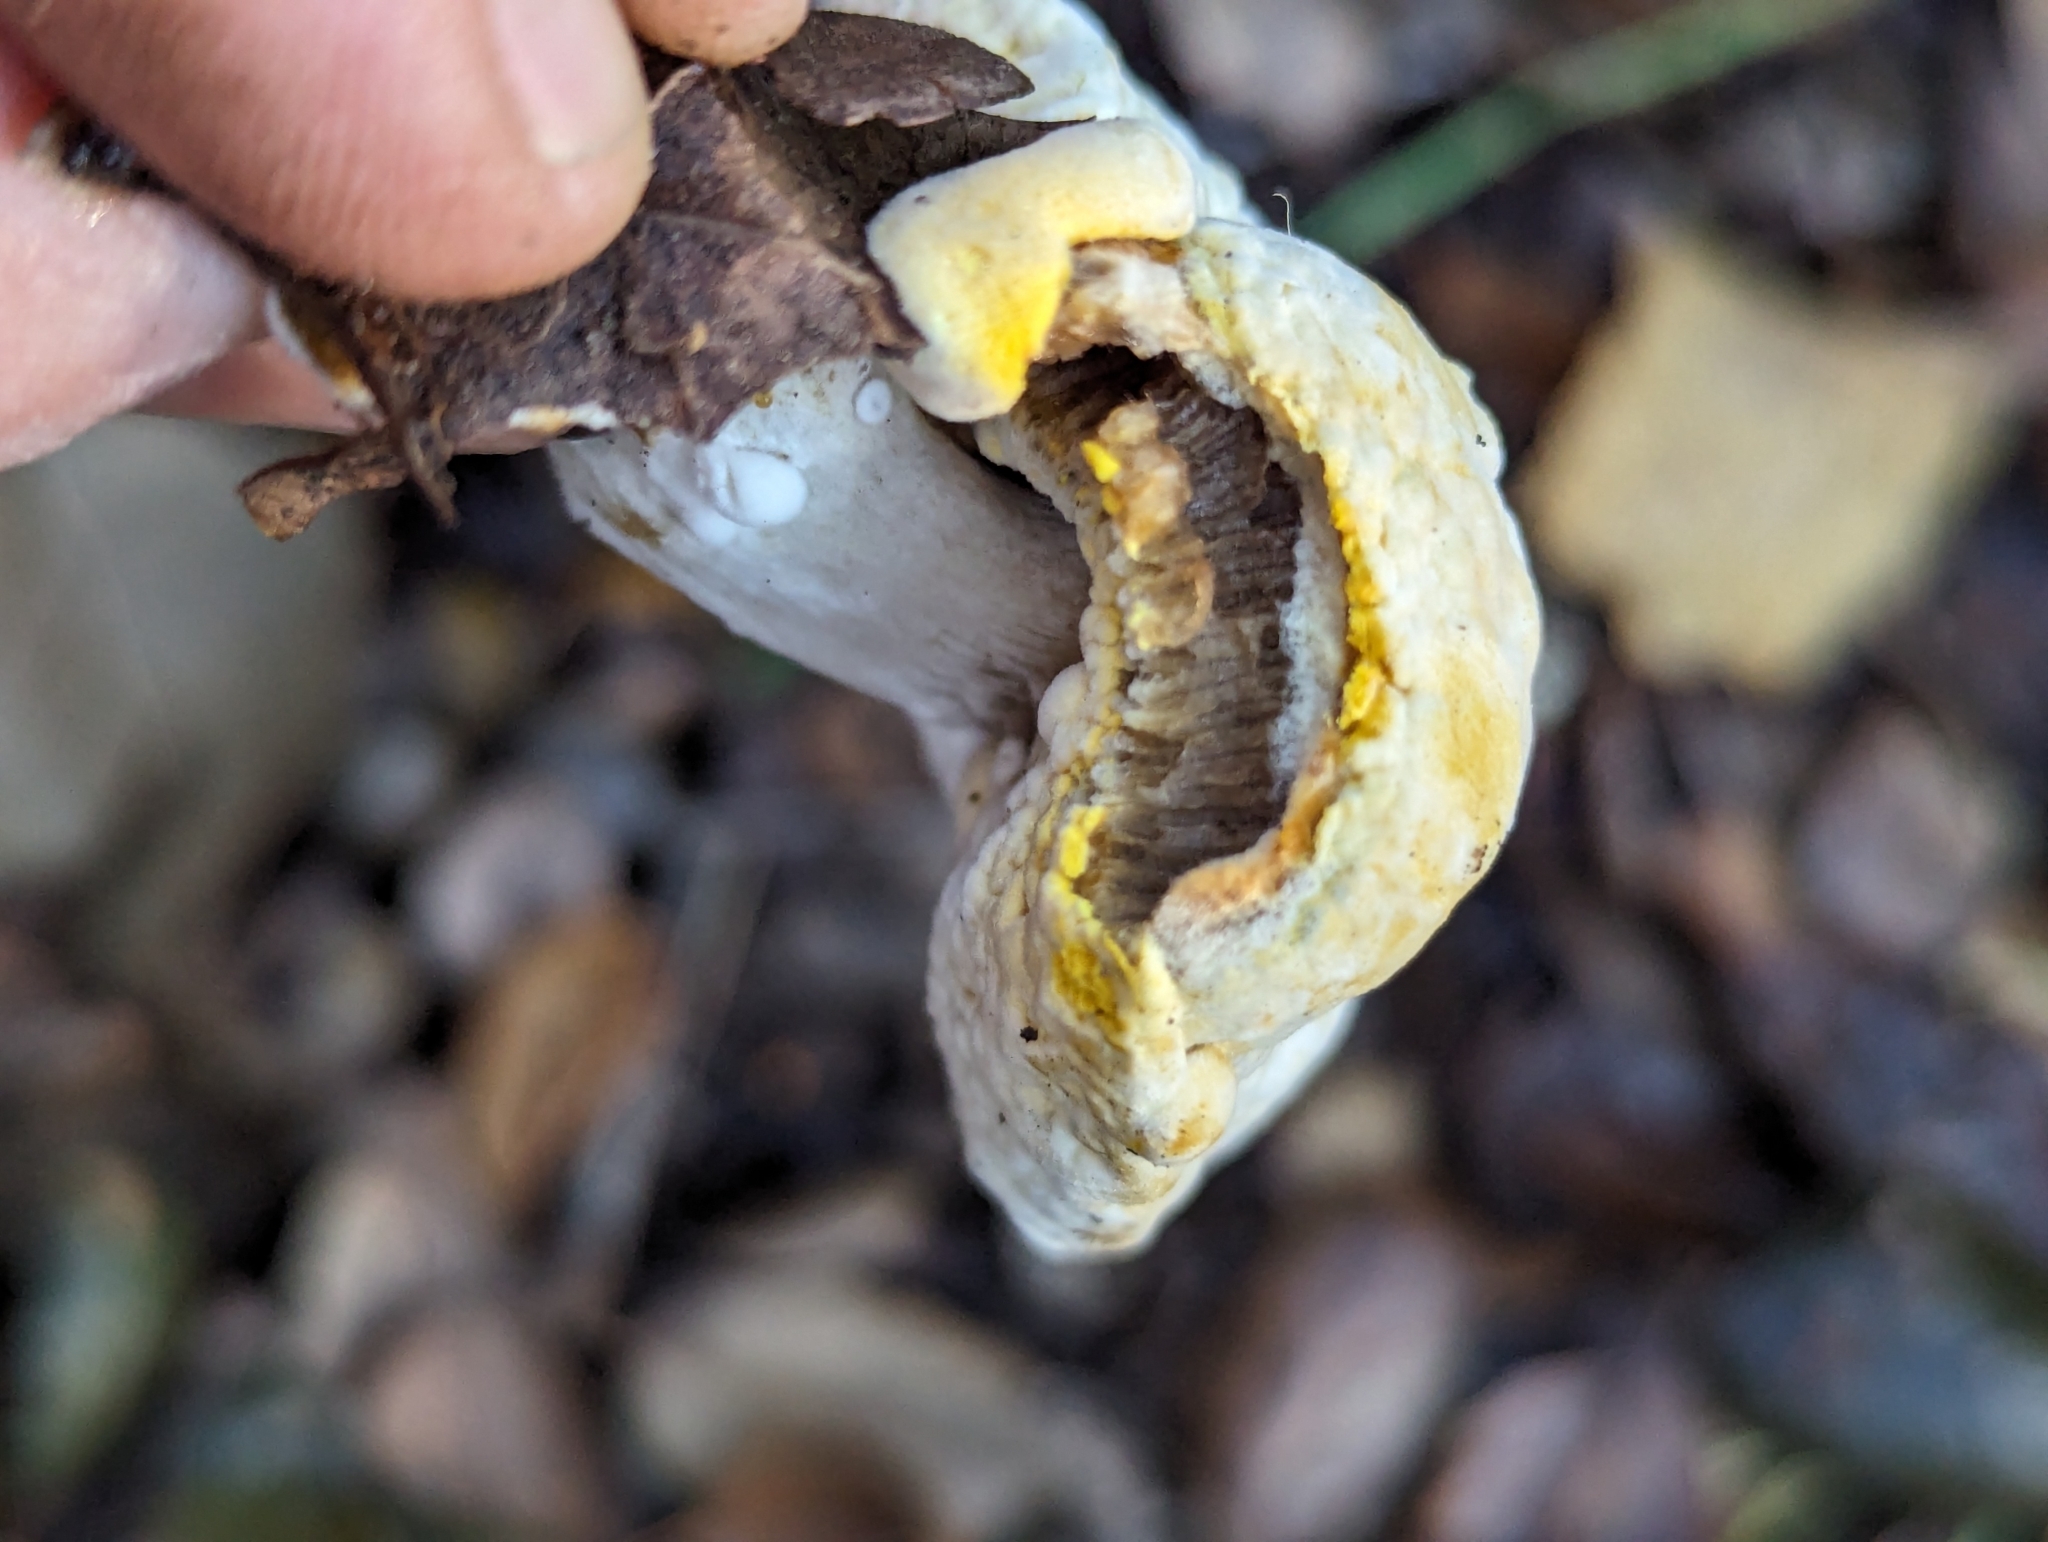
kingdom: Fungi
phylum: Ascomycota
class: Sordariomycetes
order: Hypocreales
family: Hypocreaceae
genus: Hypomyces
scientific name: Hypomyces microspermus
